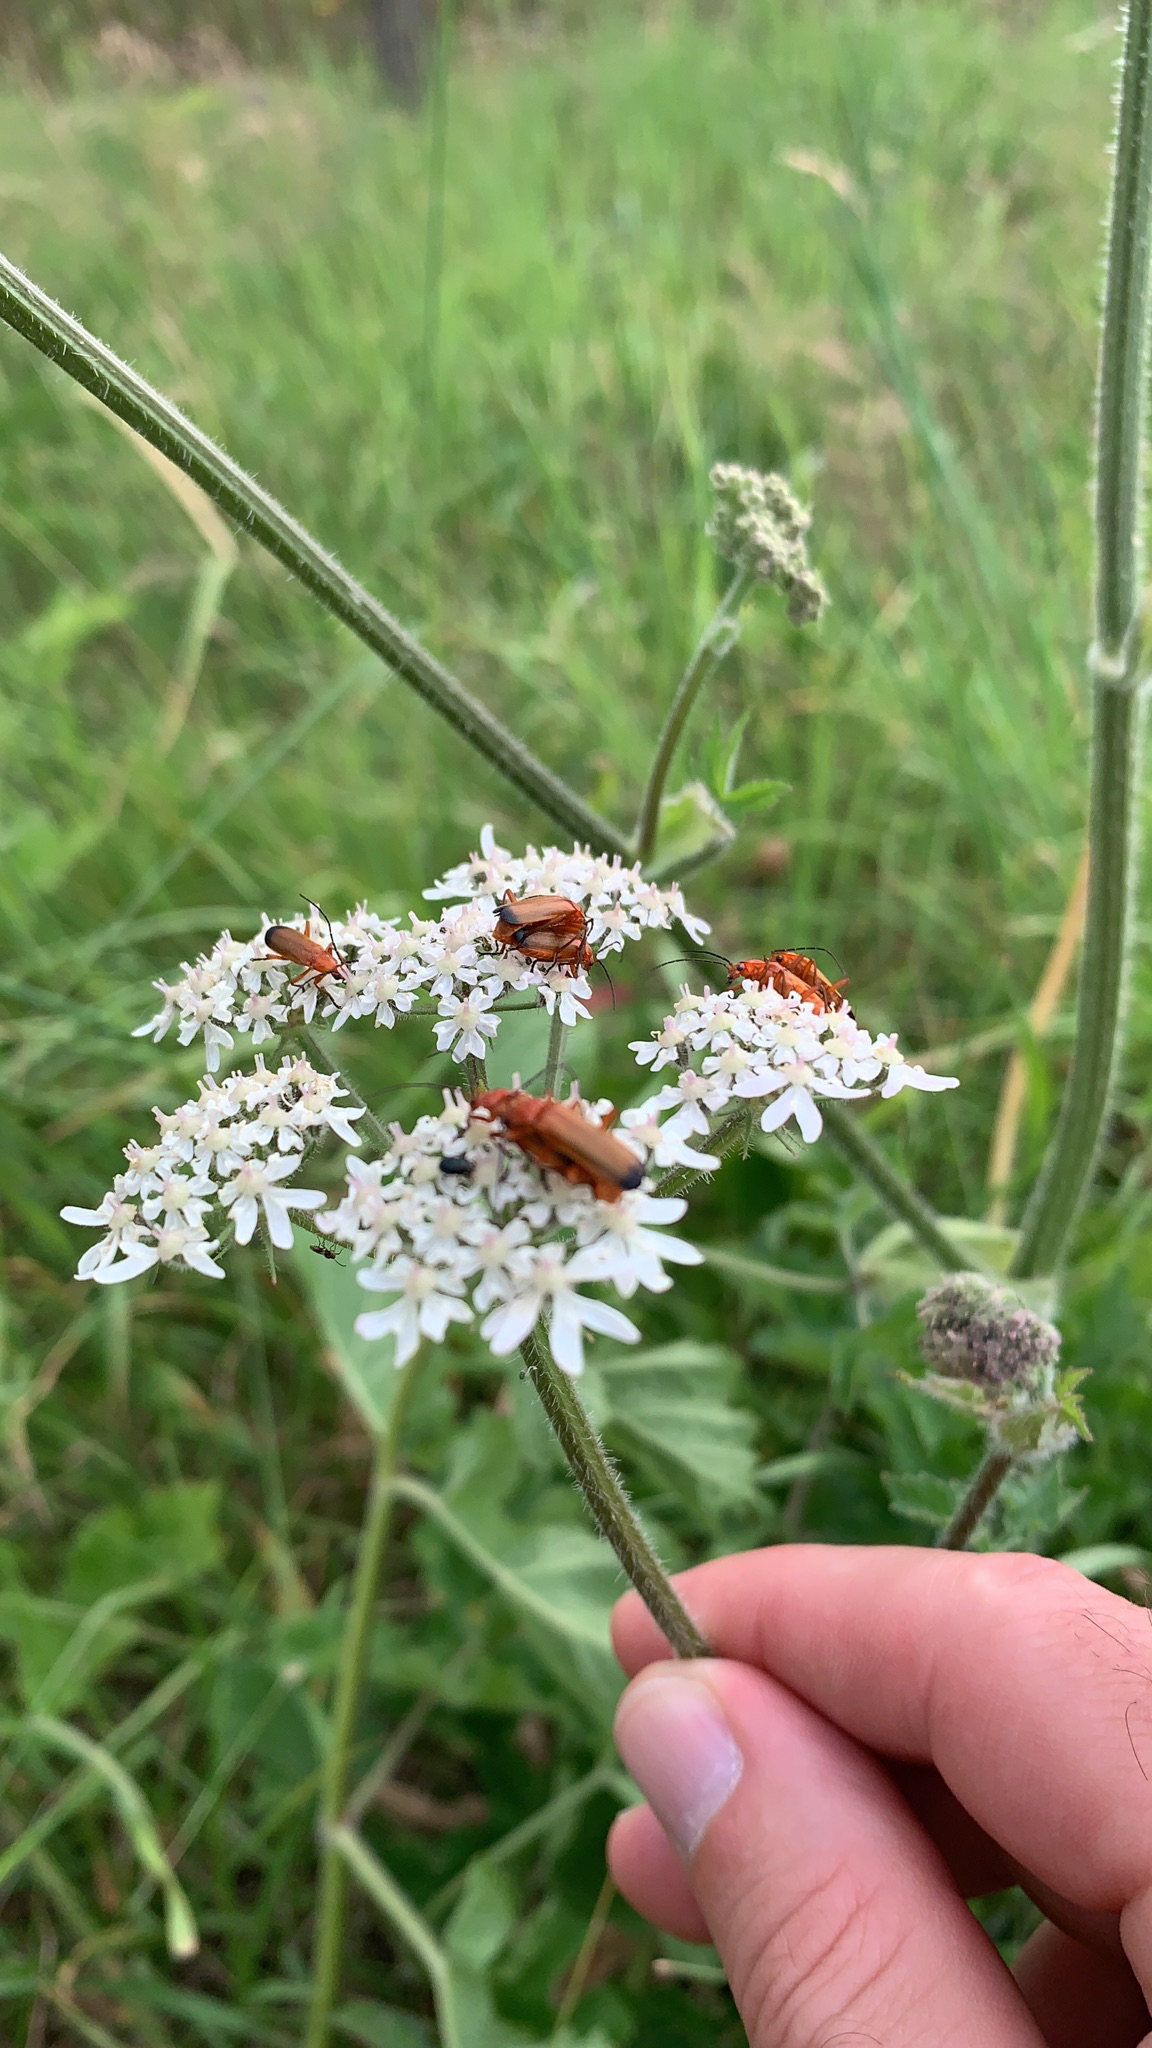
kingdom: Animalia
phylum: Arthropoda
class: Insecta
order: Coleoptera
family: Cantharidae
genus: Rhagonycha
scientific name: Rhagonycha fulva
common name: Common red soldier beetle
